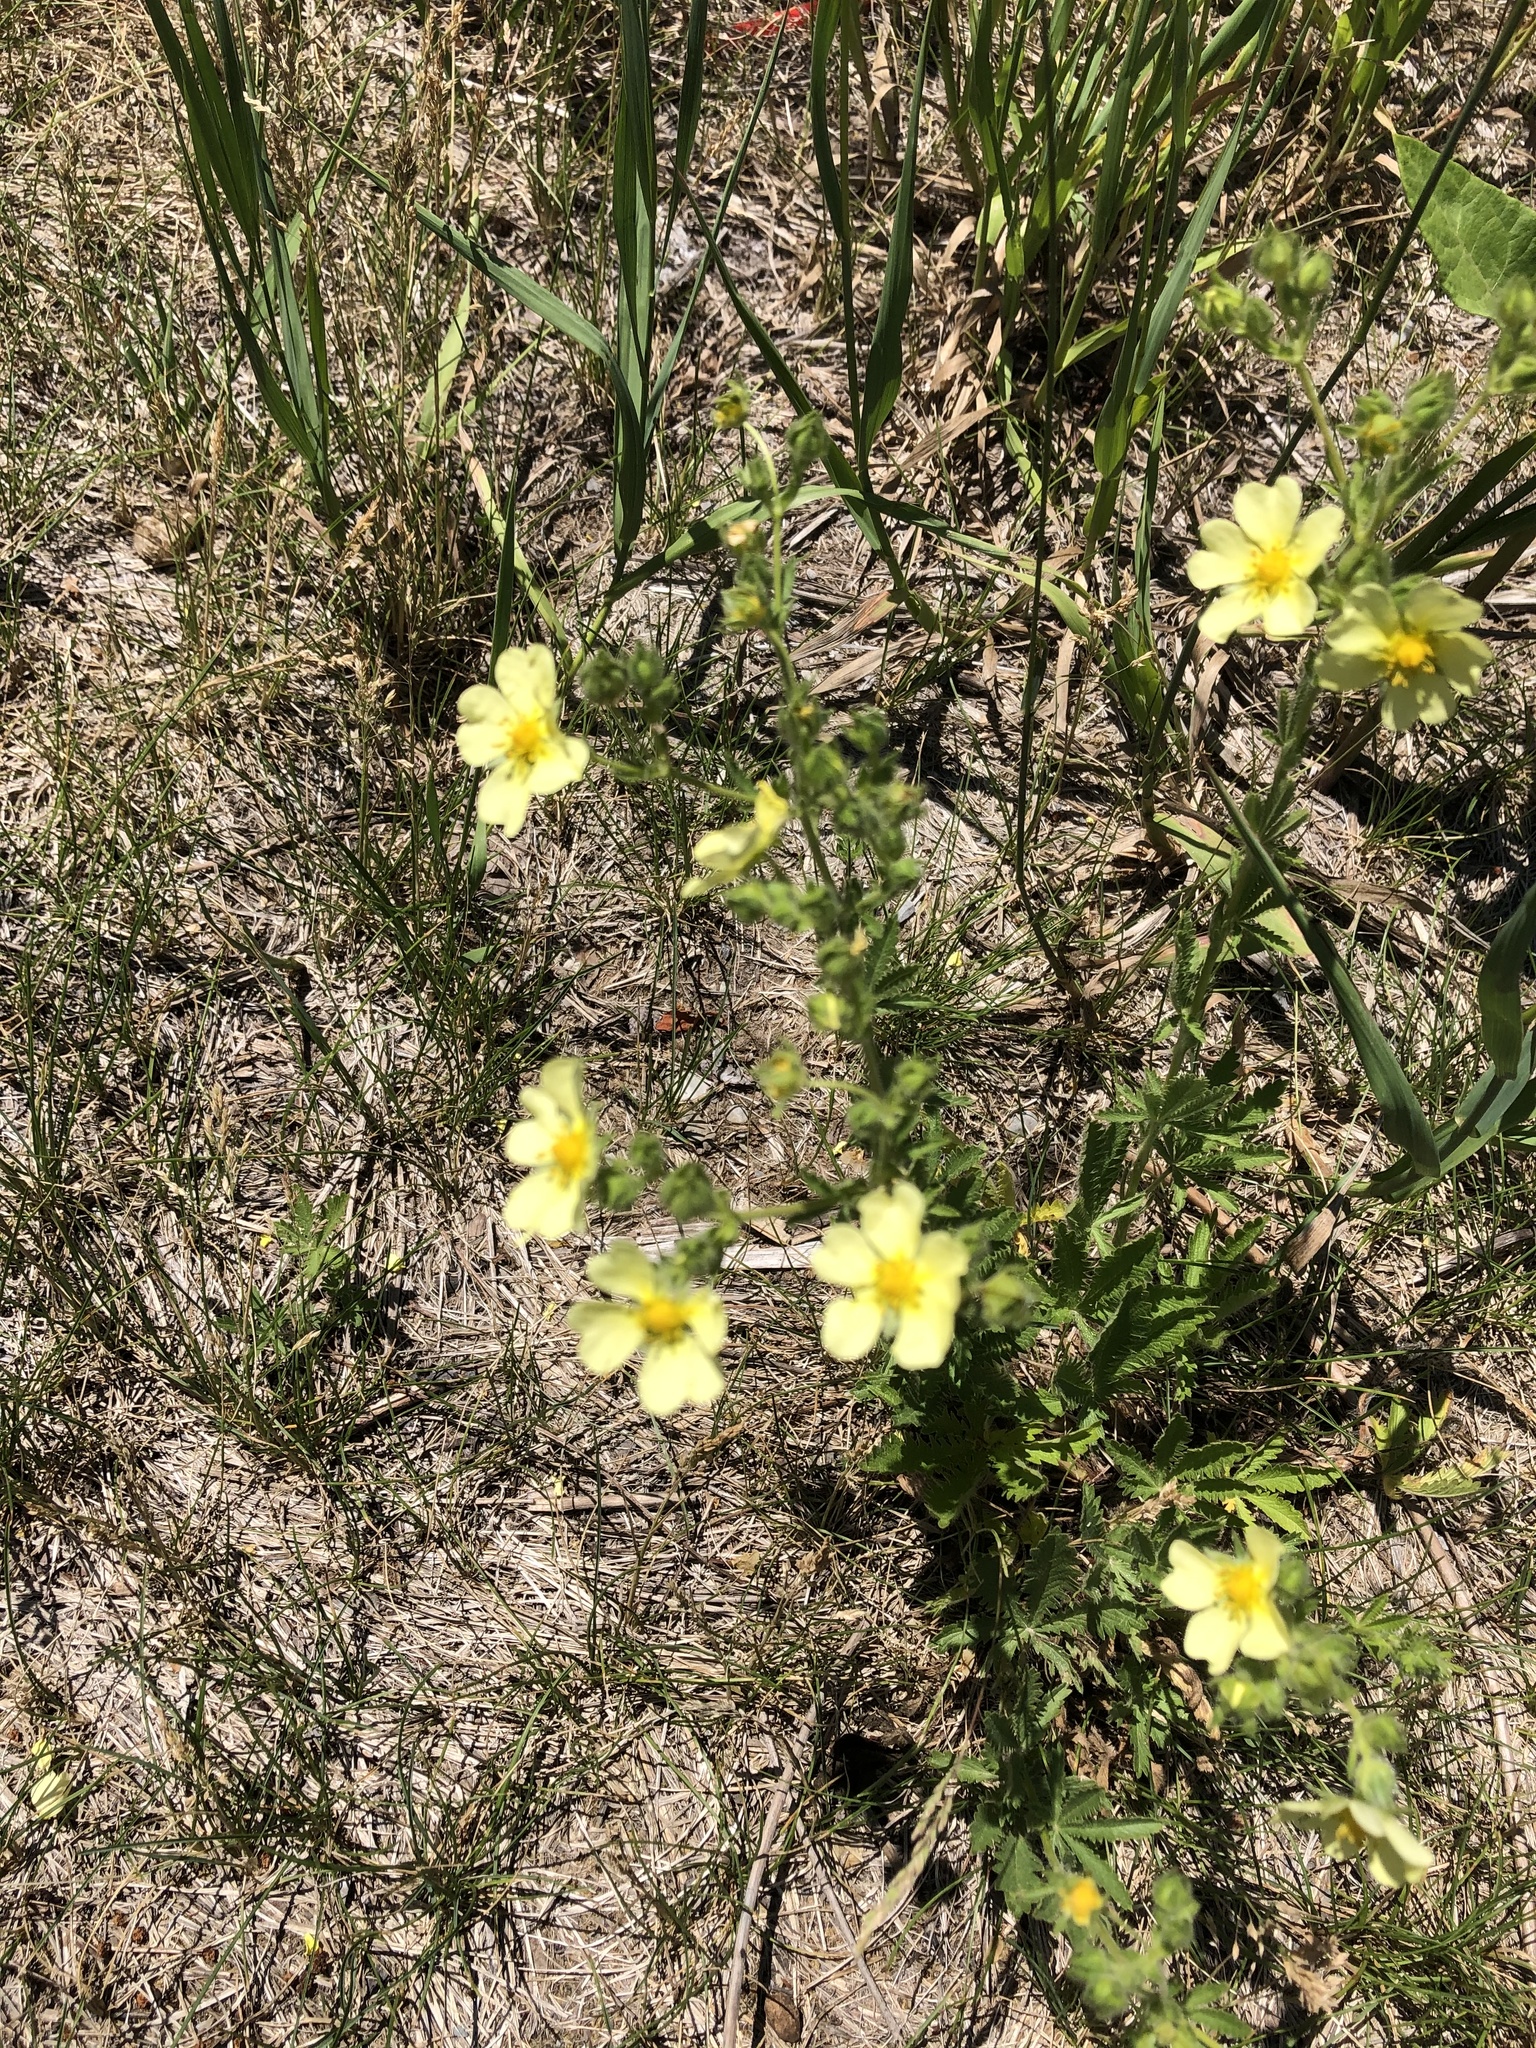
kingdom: Plantae
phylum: Tracheophyta
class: Magnoliopsida
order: Rosales
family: Rosaceae
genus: Potentilla
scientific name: Potentilla recta
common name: Sulphur cinquefoil
